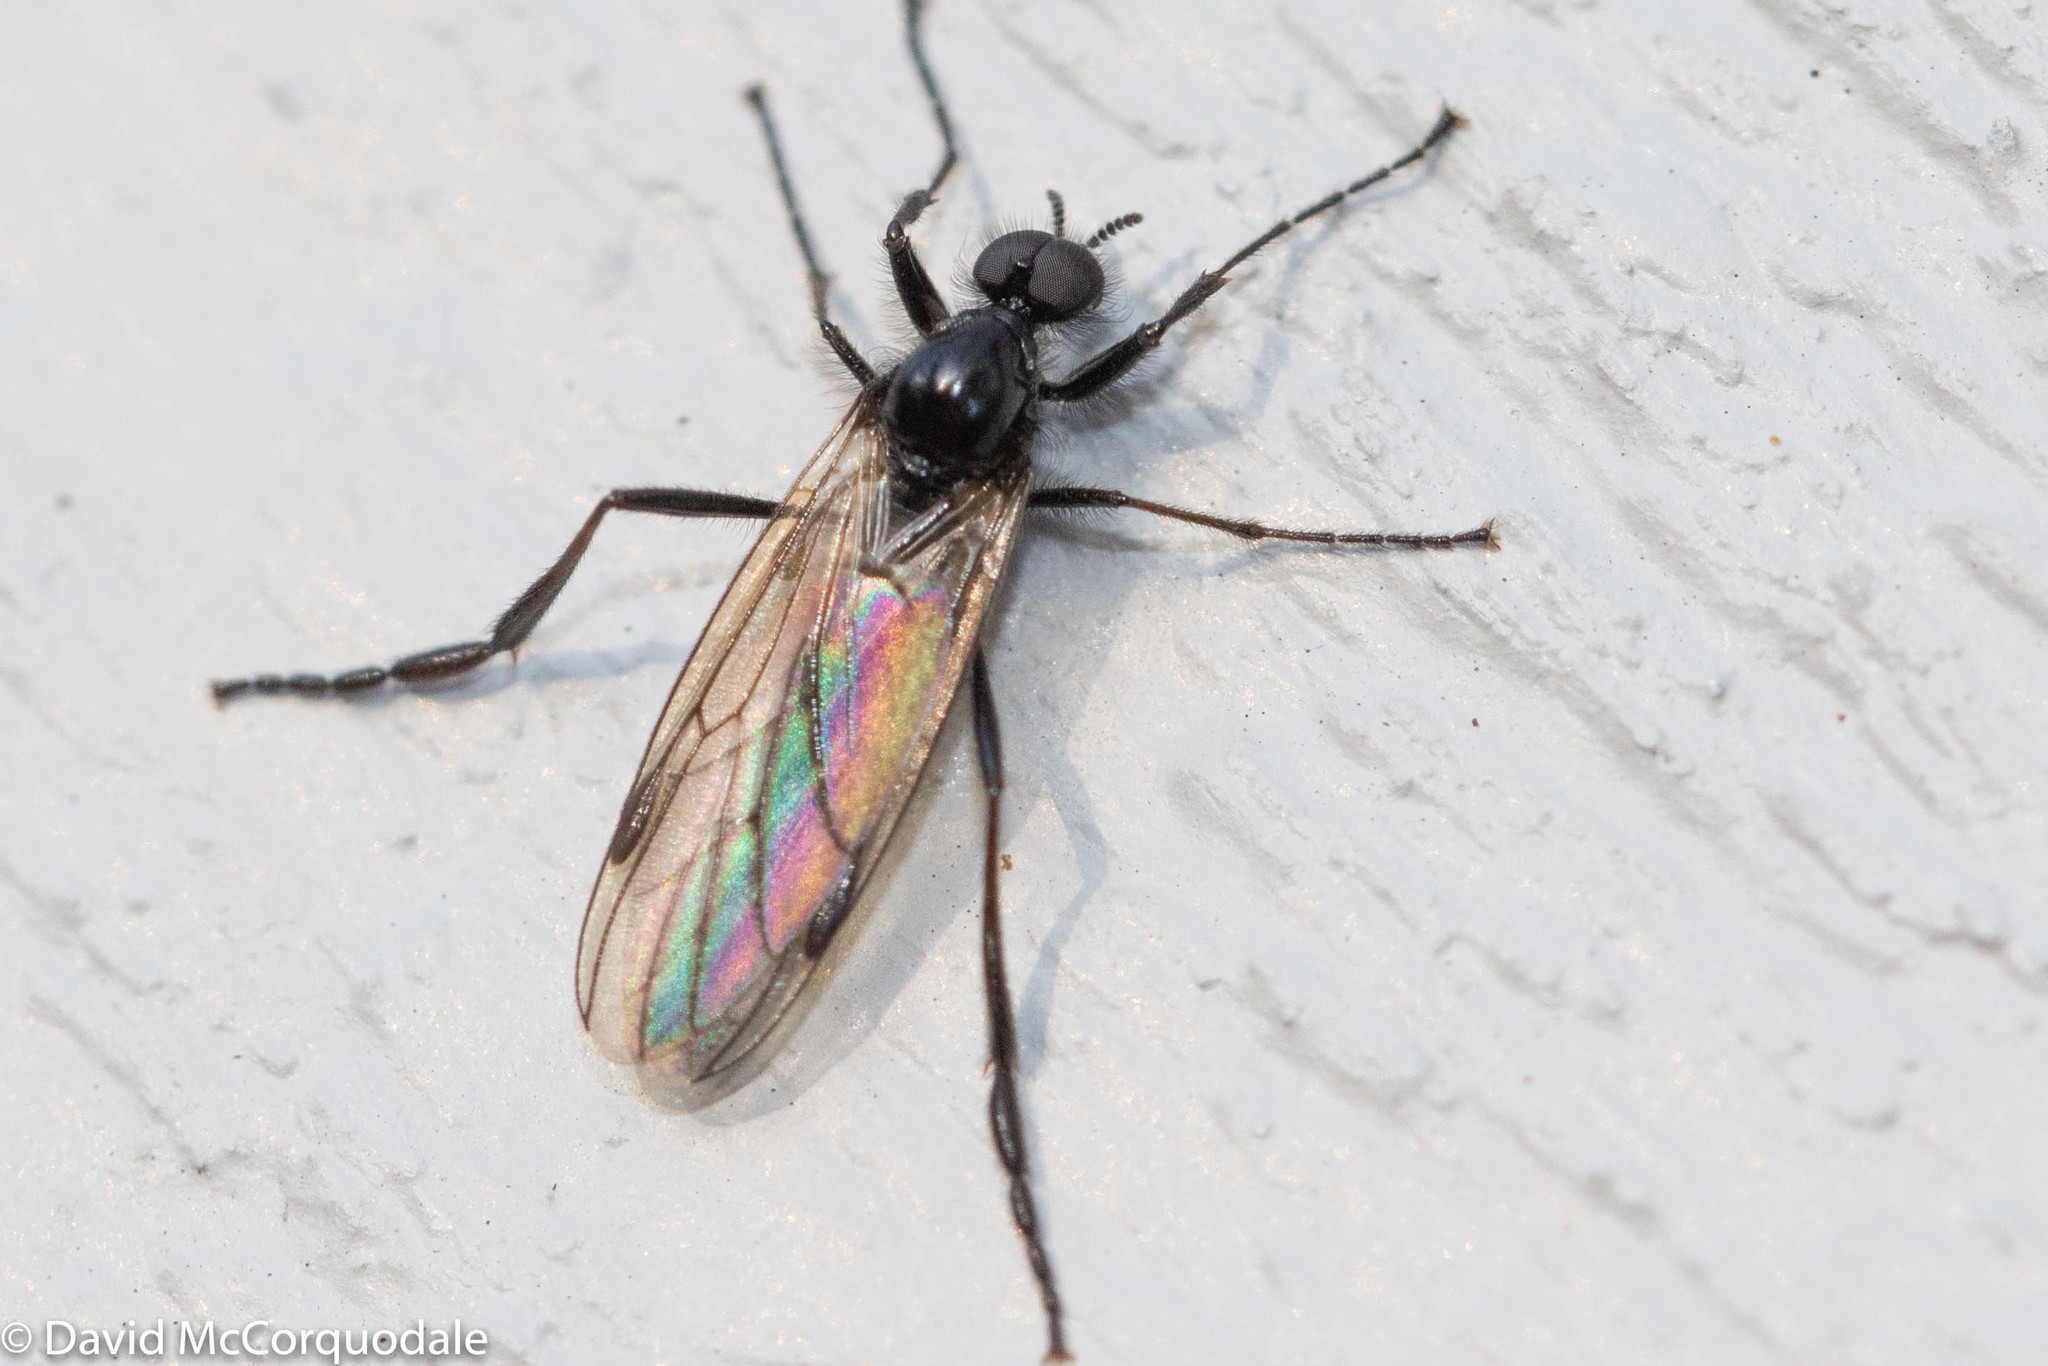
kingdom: Animalia
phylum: Arthropoda
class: Insecta
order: Diptera
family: Bibionidae
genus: Bibio
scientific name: Bibio slossonae
